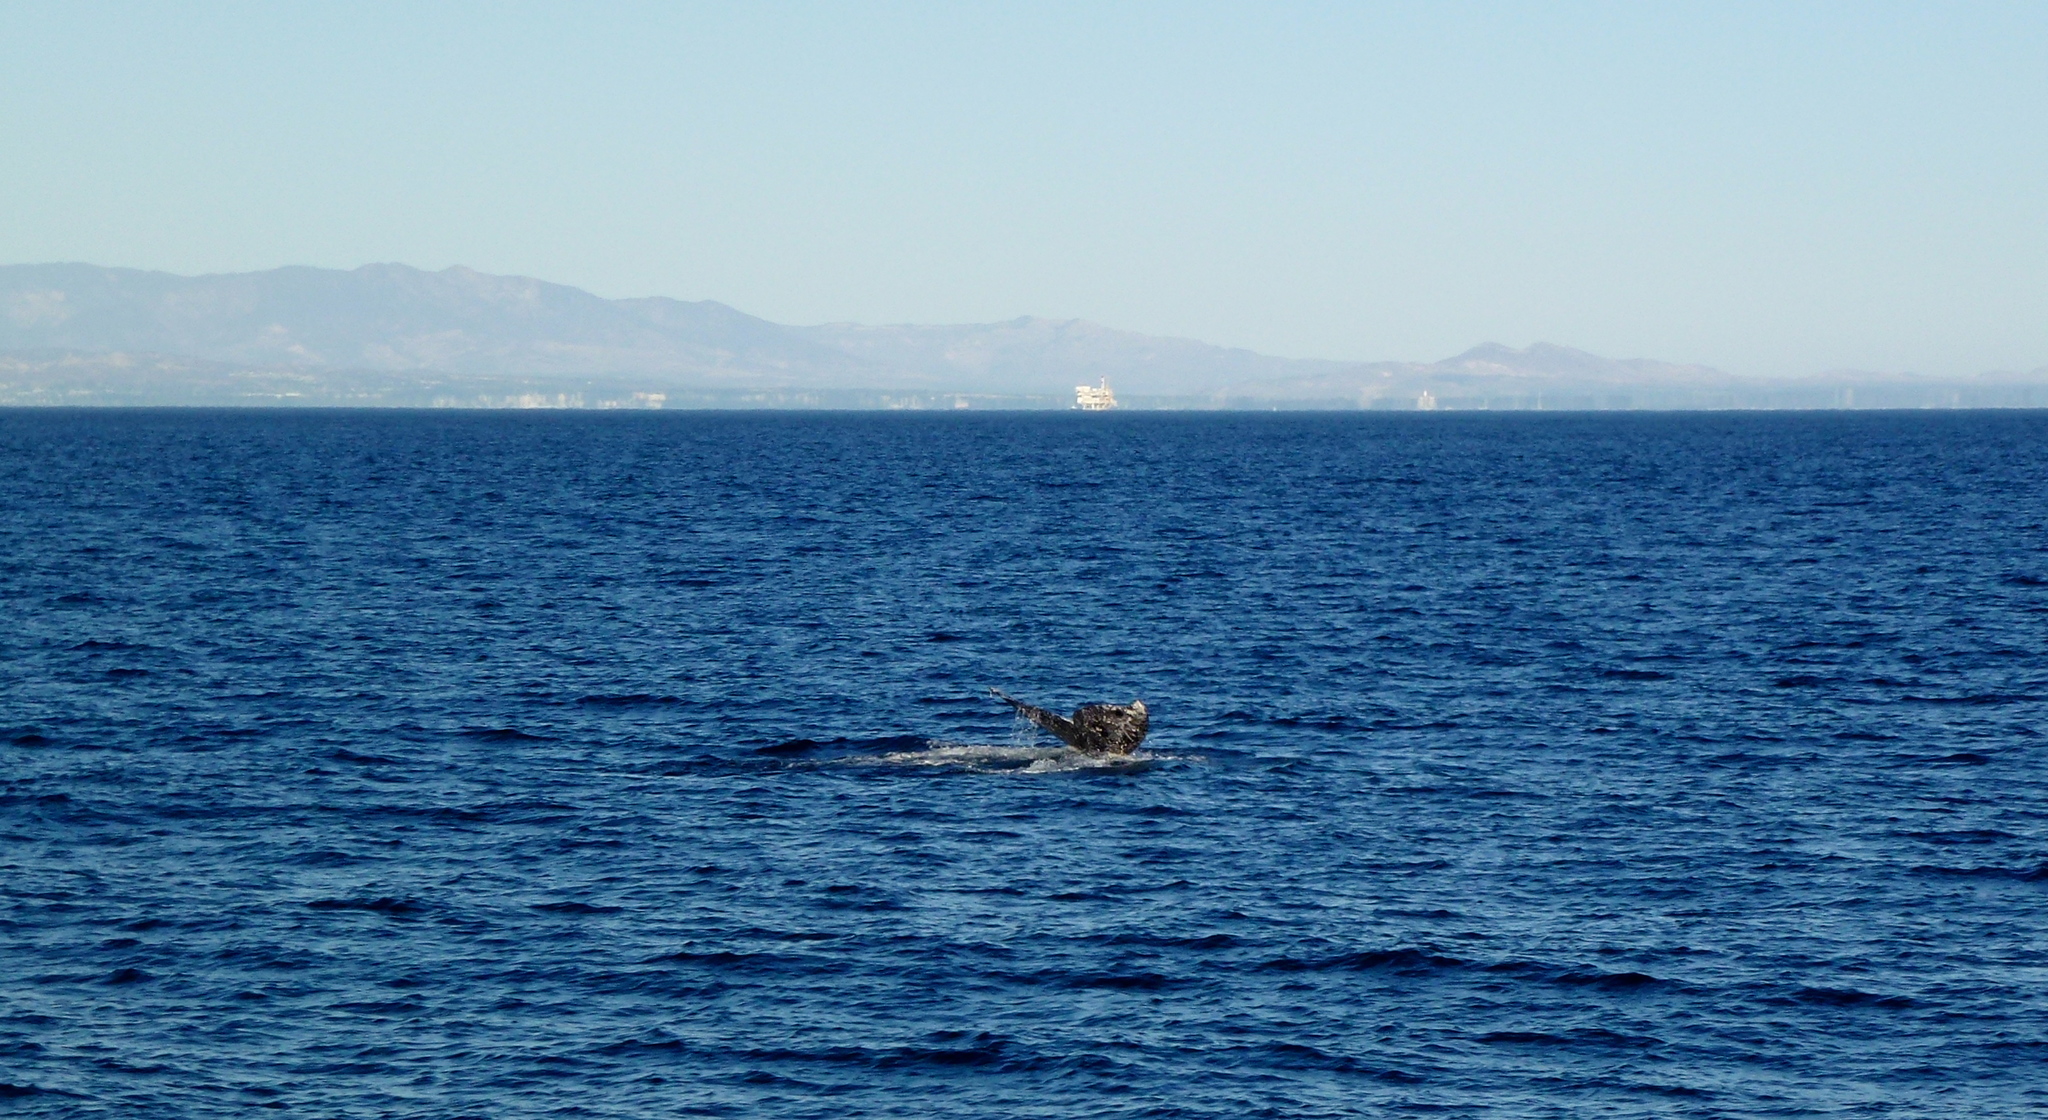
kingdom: Animalia
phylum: Chordata
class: Mammalia
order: Cetacea
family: Eschrichtiidae
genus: Eschrichtius
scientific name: Eschrichtius robustus
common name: Gray whale
